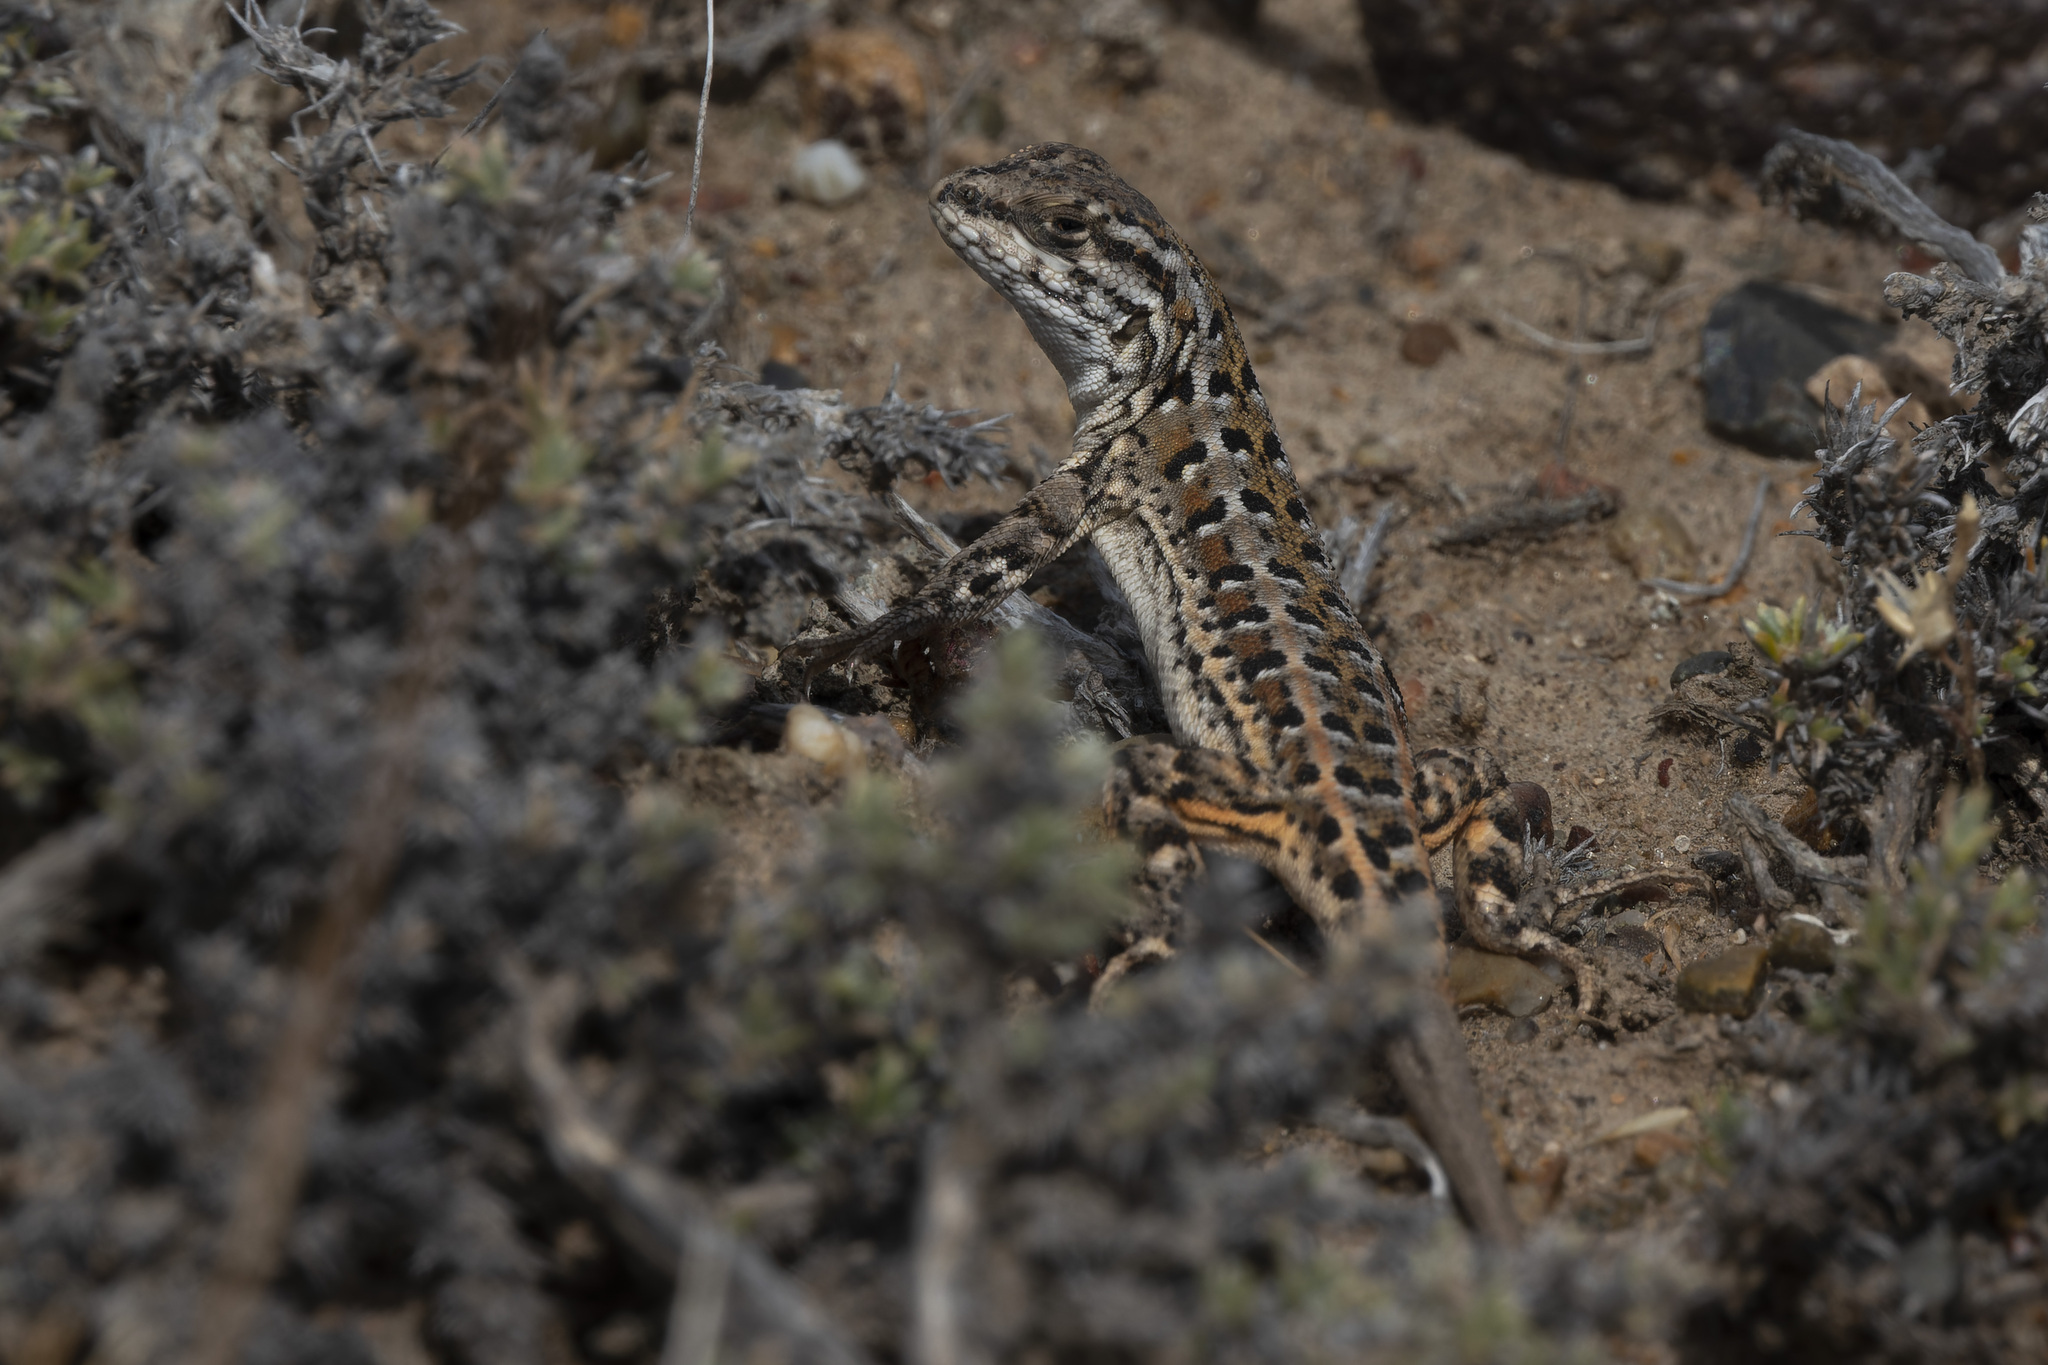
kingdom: Animalia
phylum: Chordata
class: Squamata
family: Liolaemidae
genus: Liolaemus
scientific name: Liolaemus boulengeri
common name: Boulenger's tree iguana
